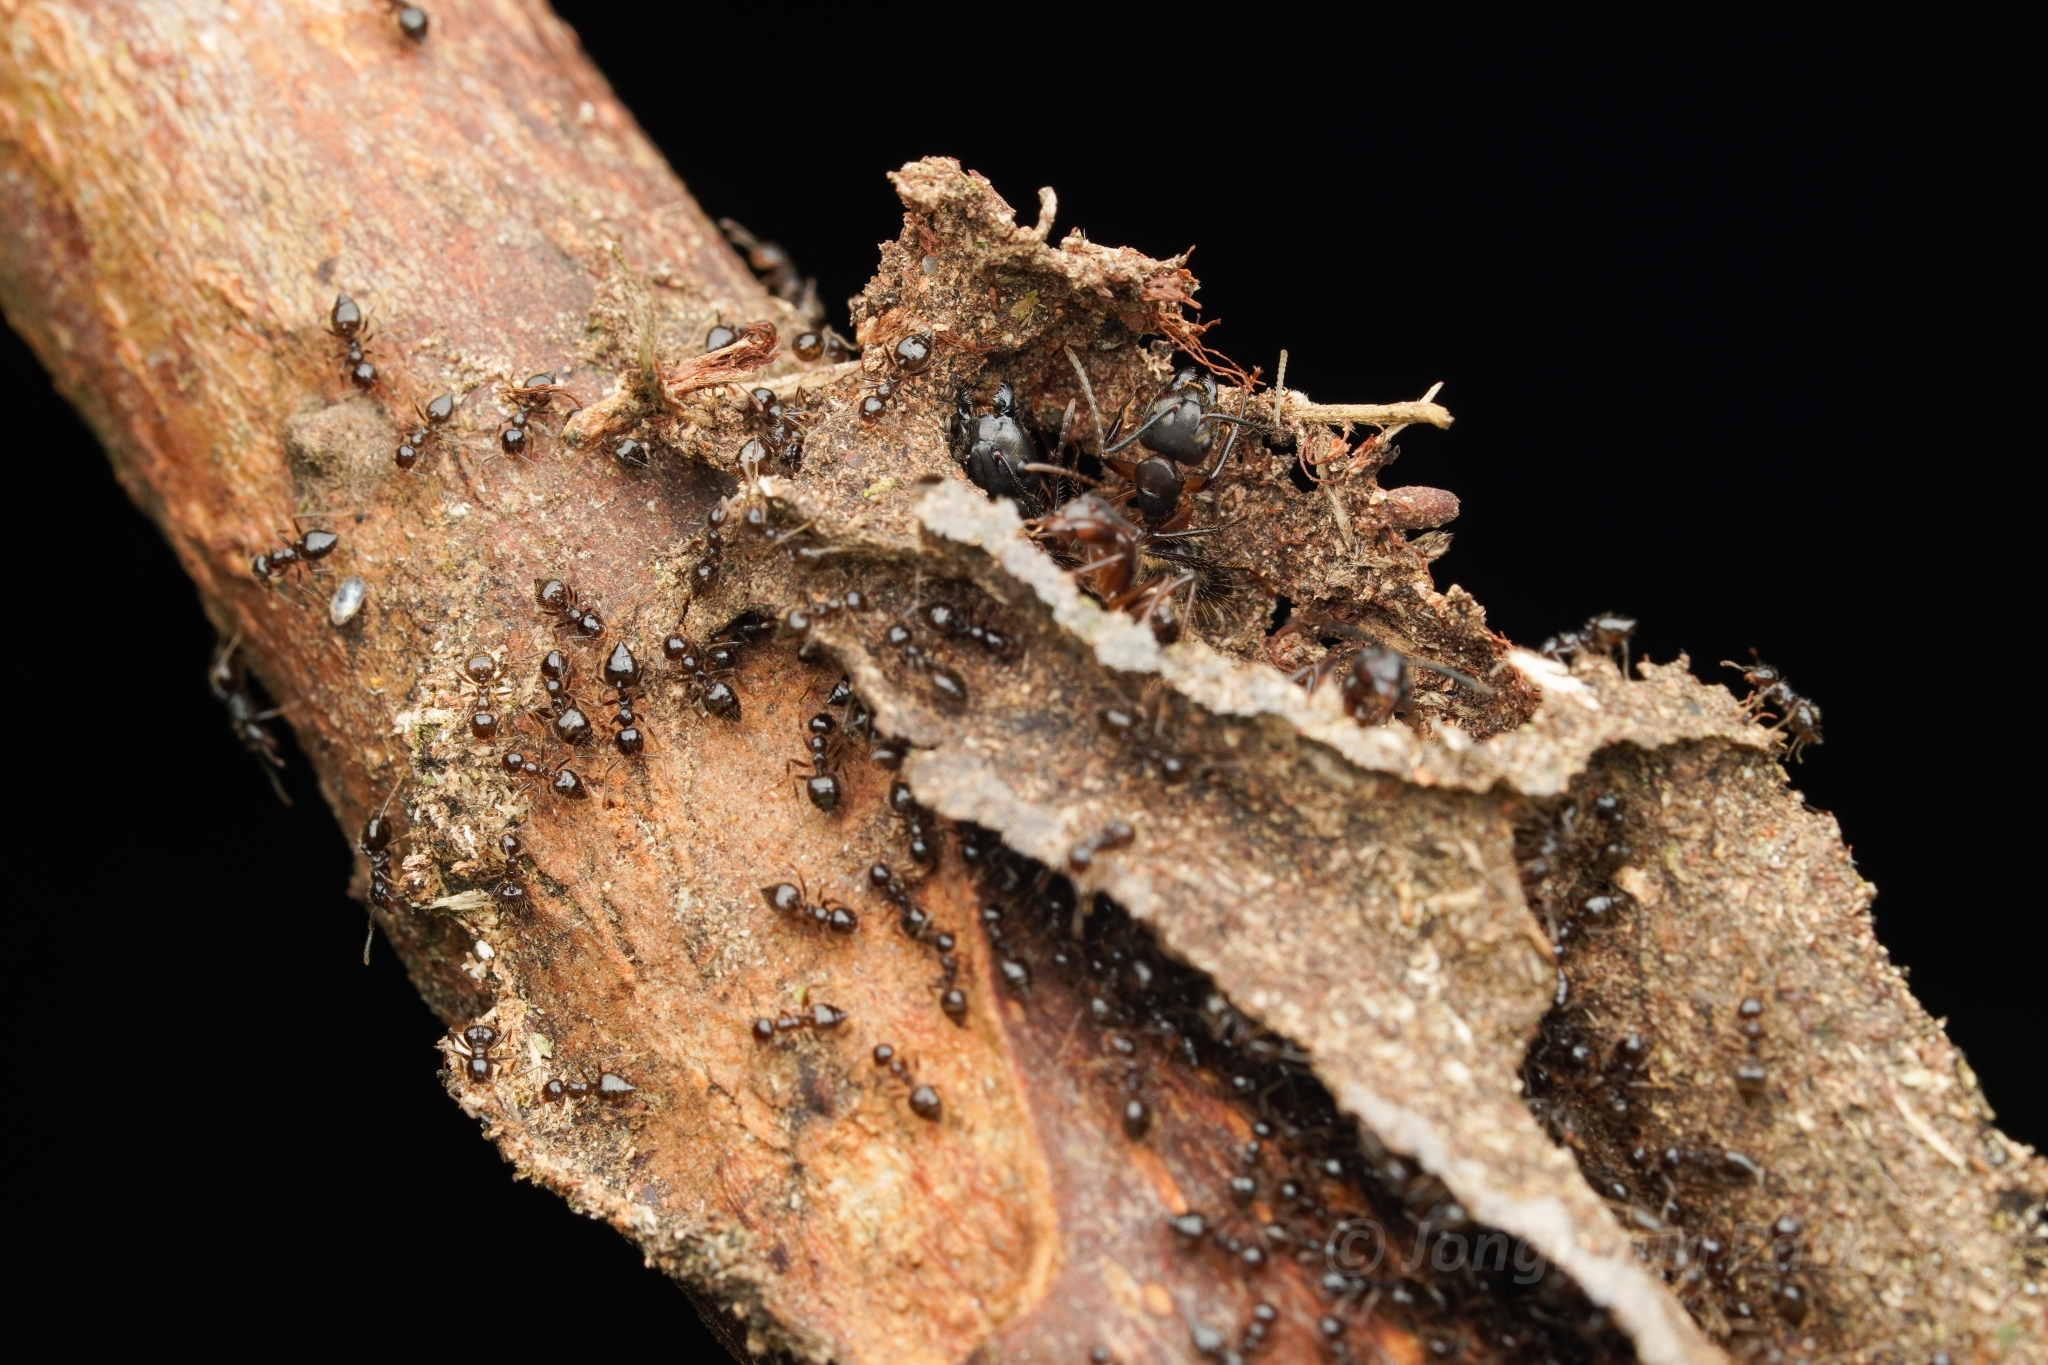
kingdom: Animalia
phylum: Arthropoda
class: Insecta
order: Hymenoptera
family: Formicidae
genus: Camponotus
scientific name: Camponotus femoratus
